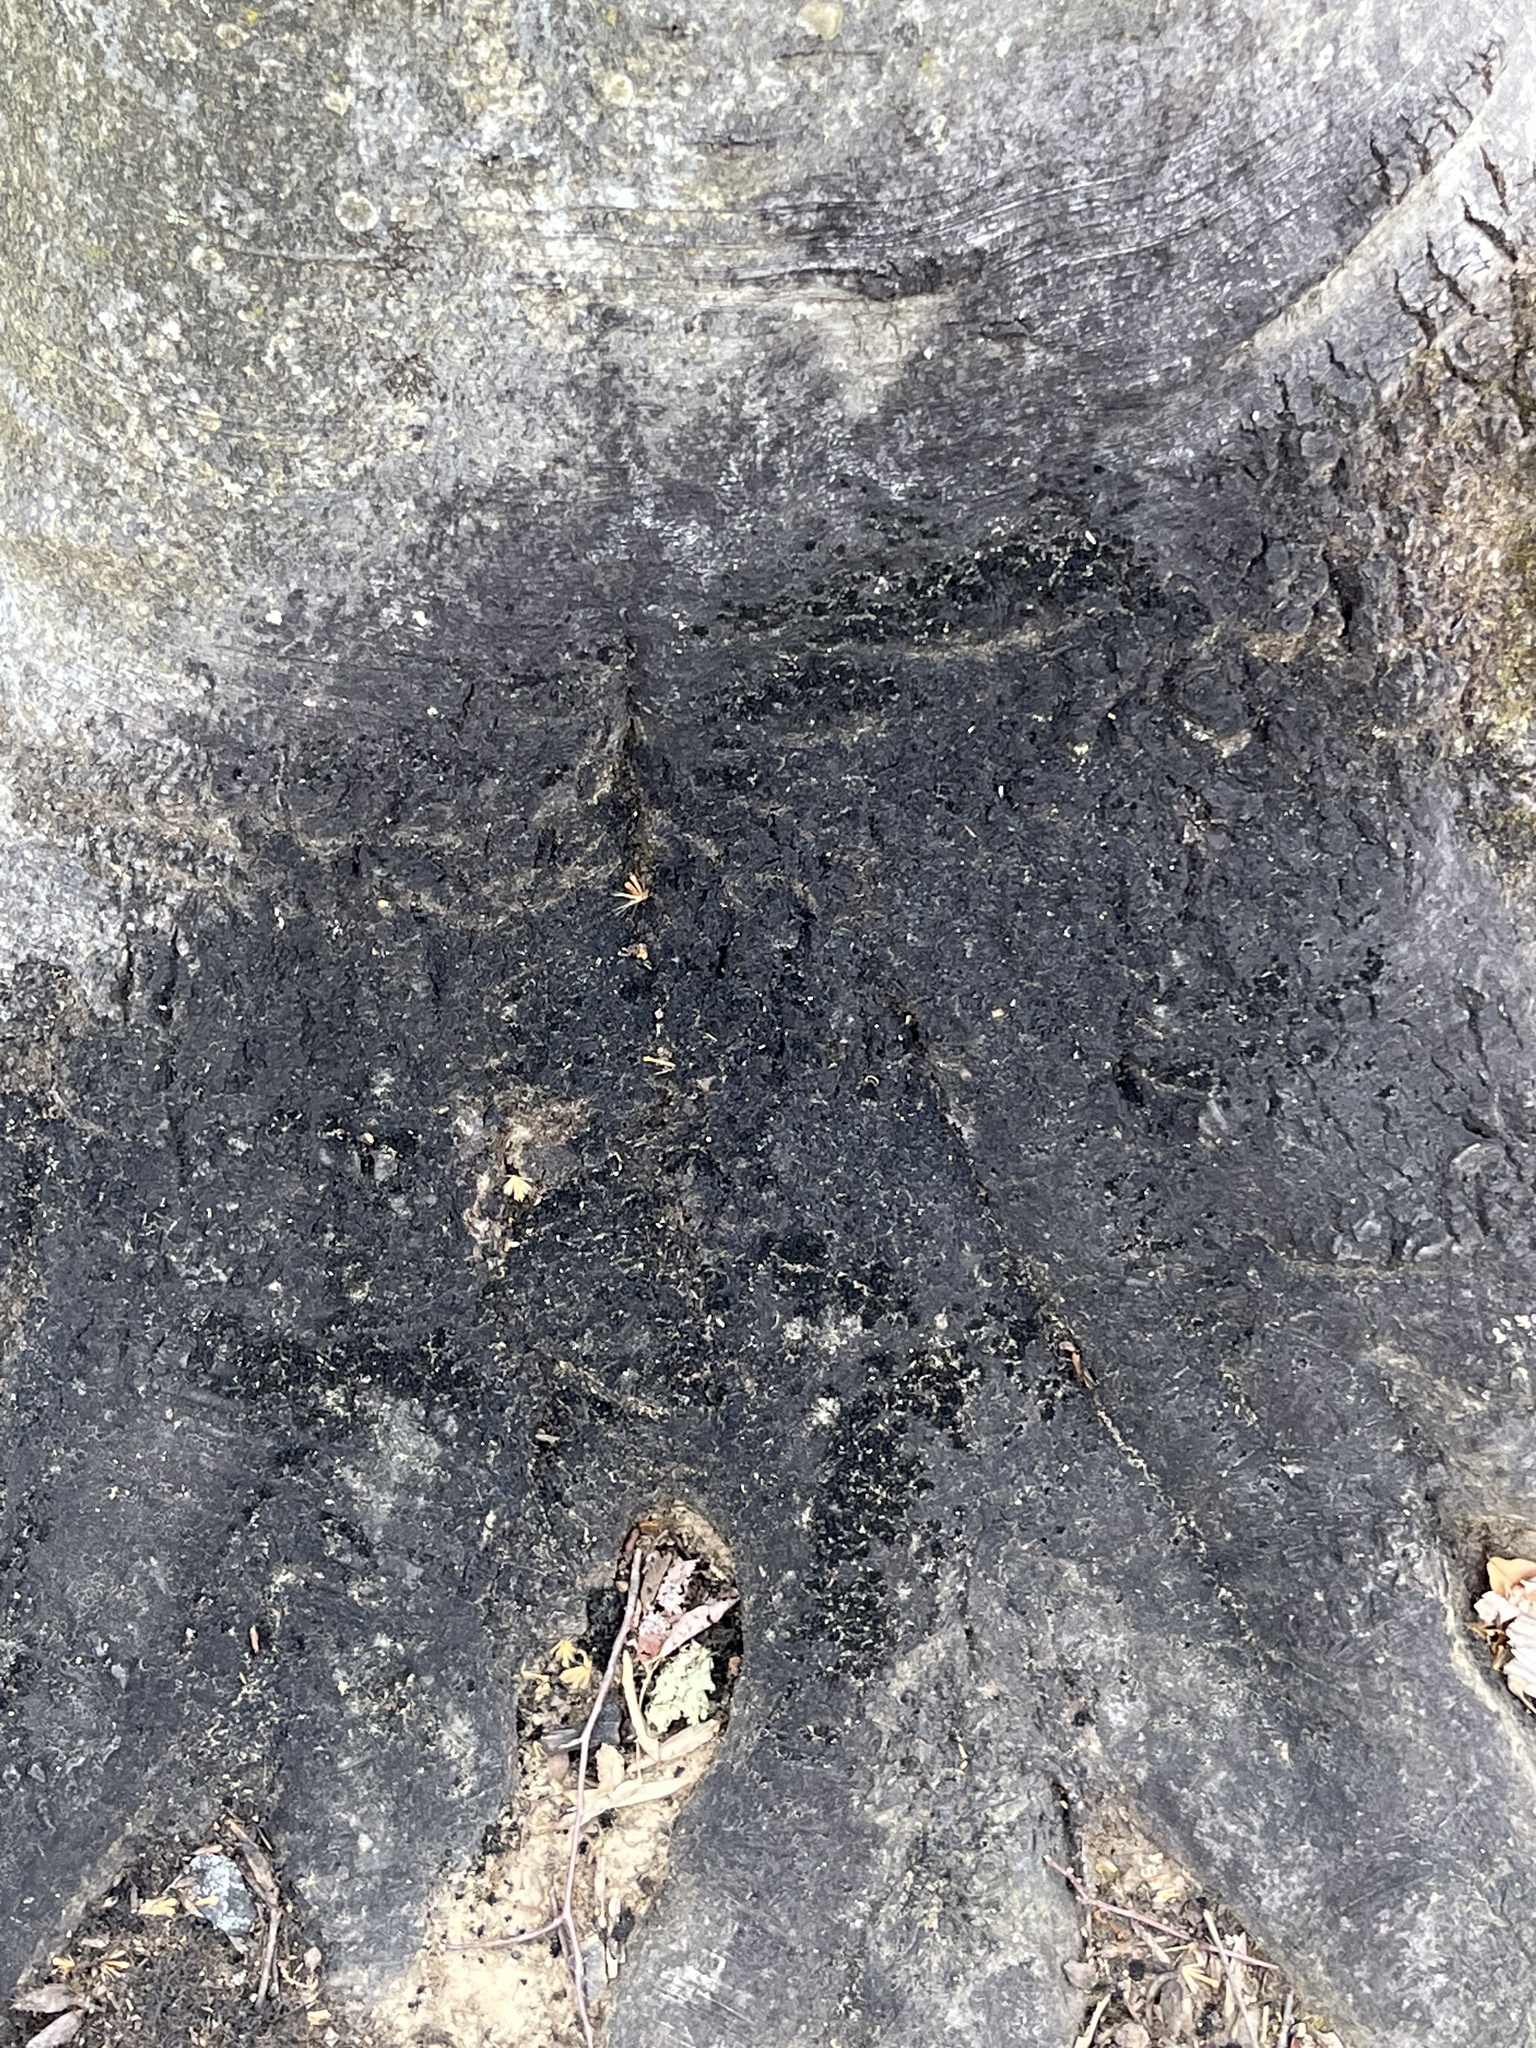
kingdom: Fungi
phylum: Ascomycota
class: Dothideomycetes
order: Capnodiales
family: Capnodiaceae
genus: Scorias
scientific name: Scorias spongiosa
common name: Black sooty mold
